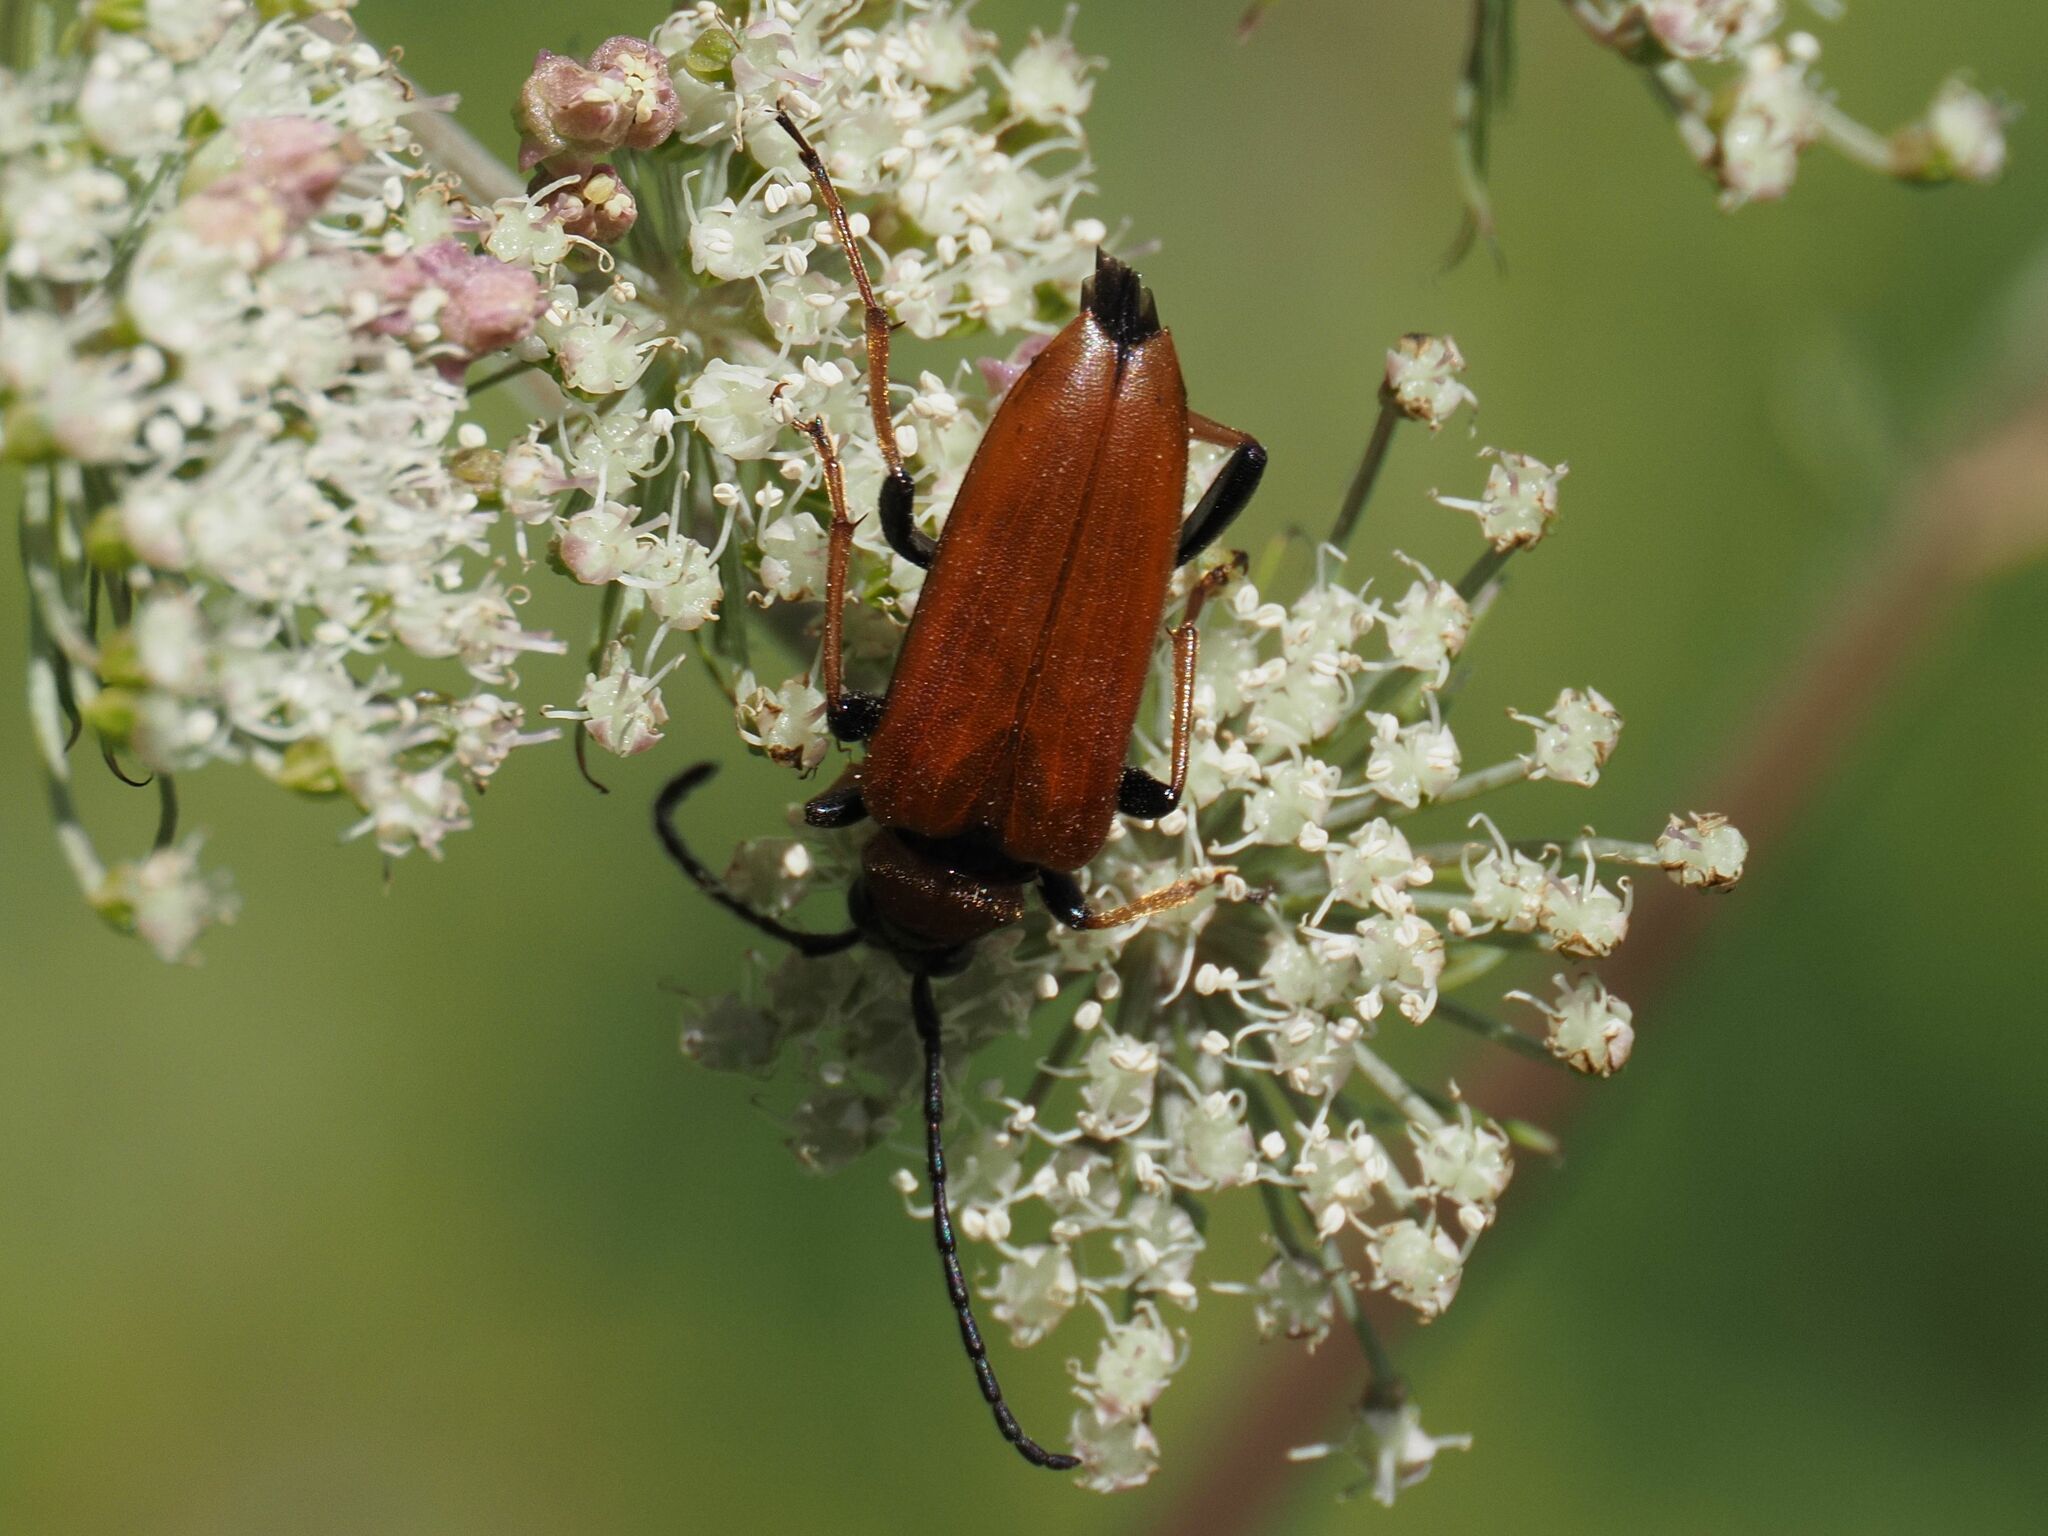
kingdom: Animalia
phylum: Arthropoda
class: Insecta
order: Coleoptera
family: Cerambycidae
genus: Stictoleptura
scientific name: Stictoleptura rubra
